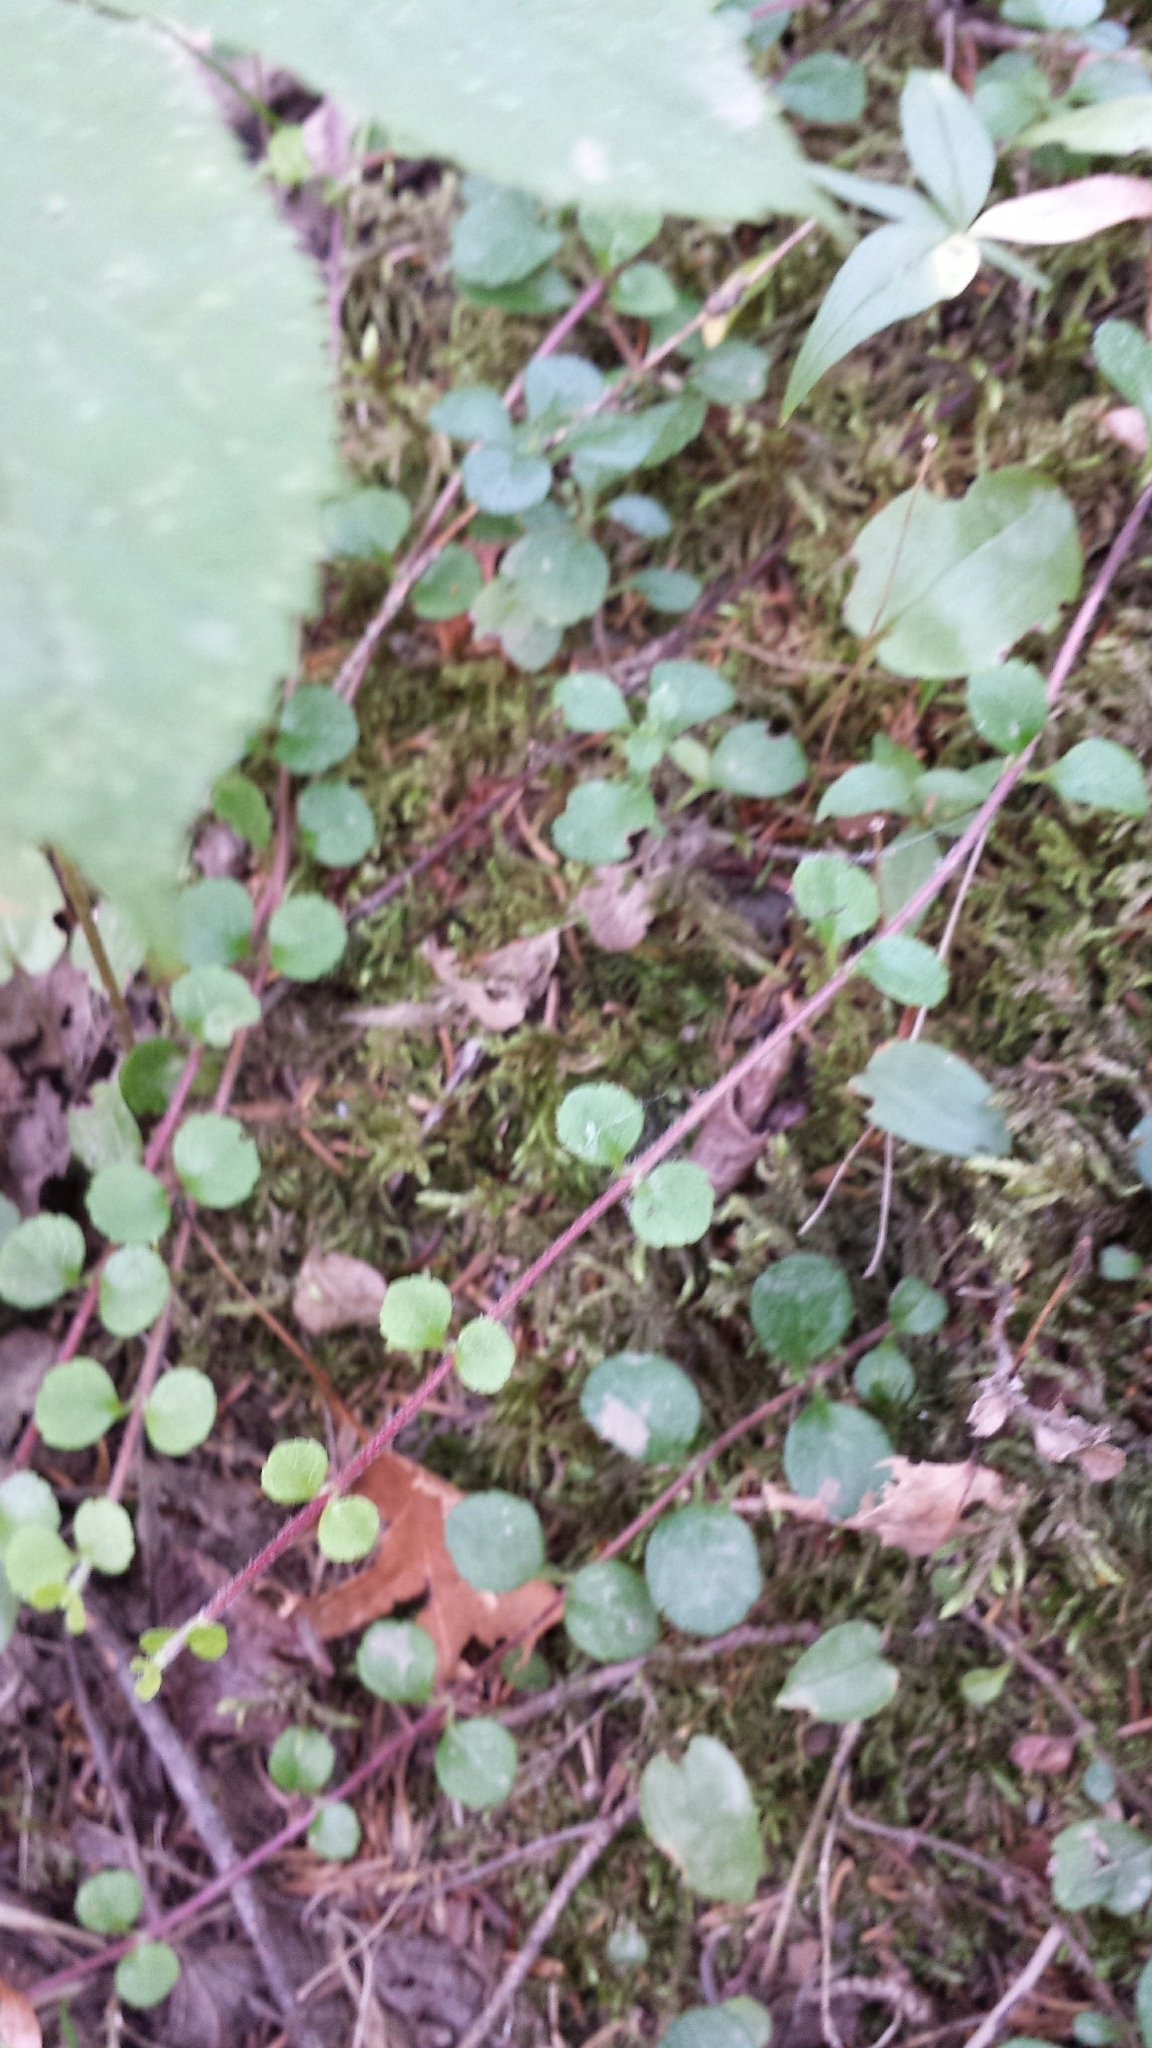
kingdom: Plantae
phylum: Tracheophyta
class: Magnoliopsida
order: Dipsacales
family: Caprifoliaceae
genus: Linnaea
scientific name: Linnaea borealis
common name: Twinflower
